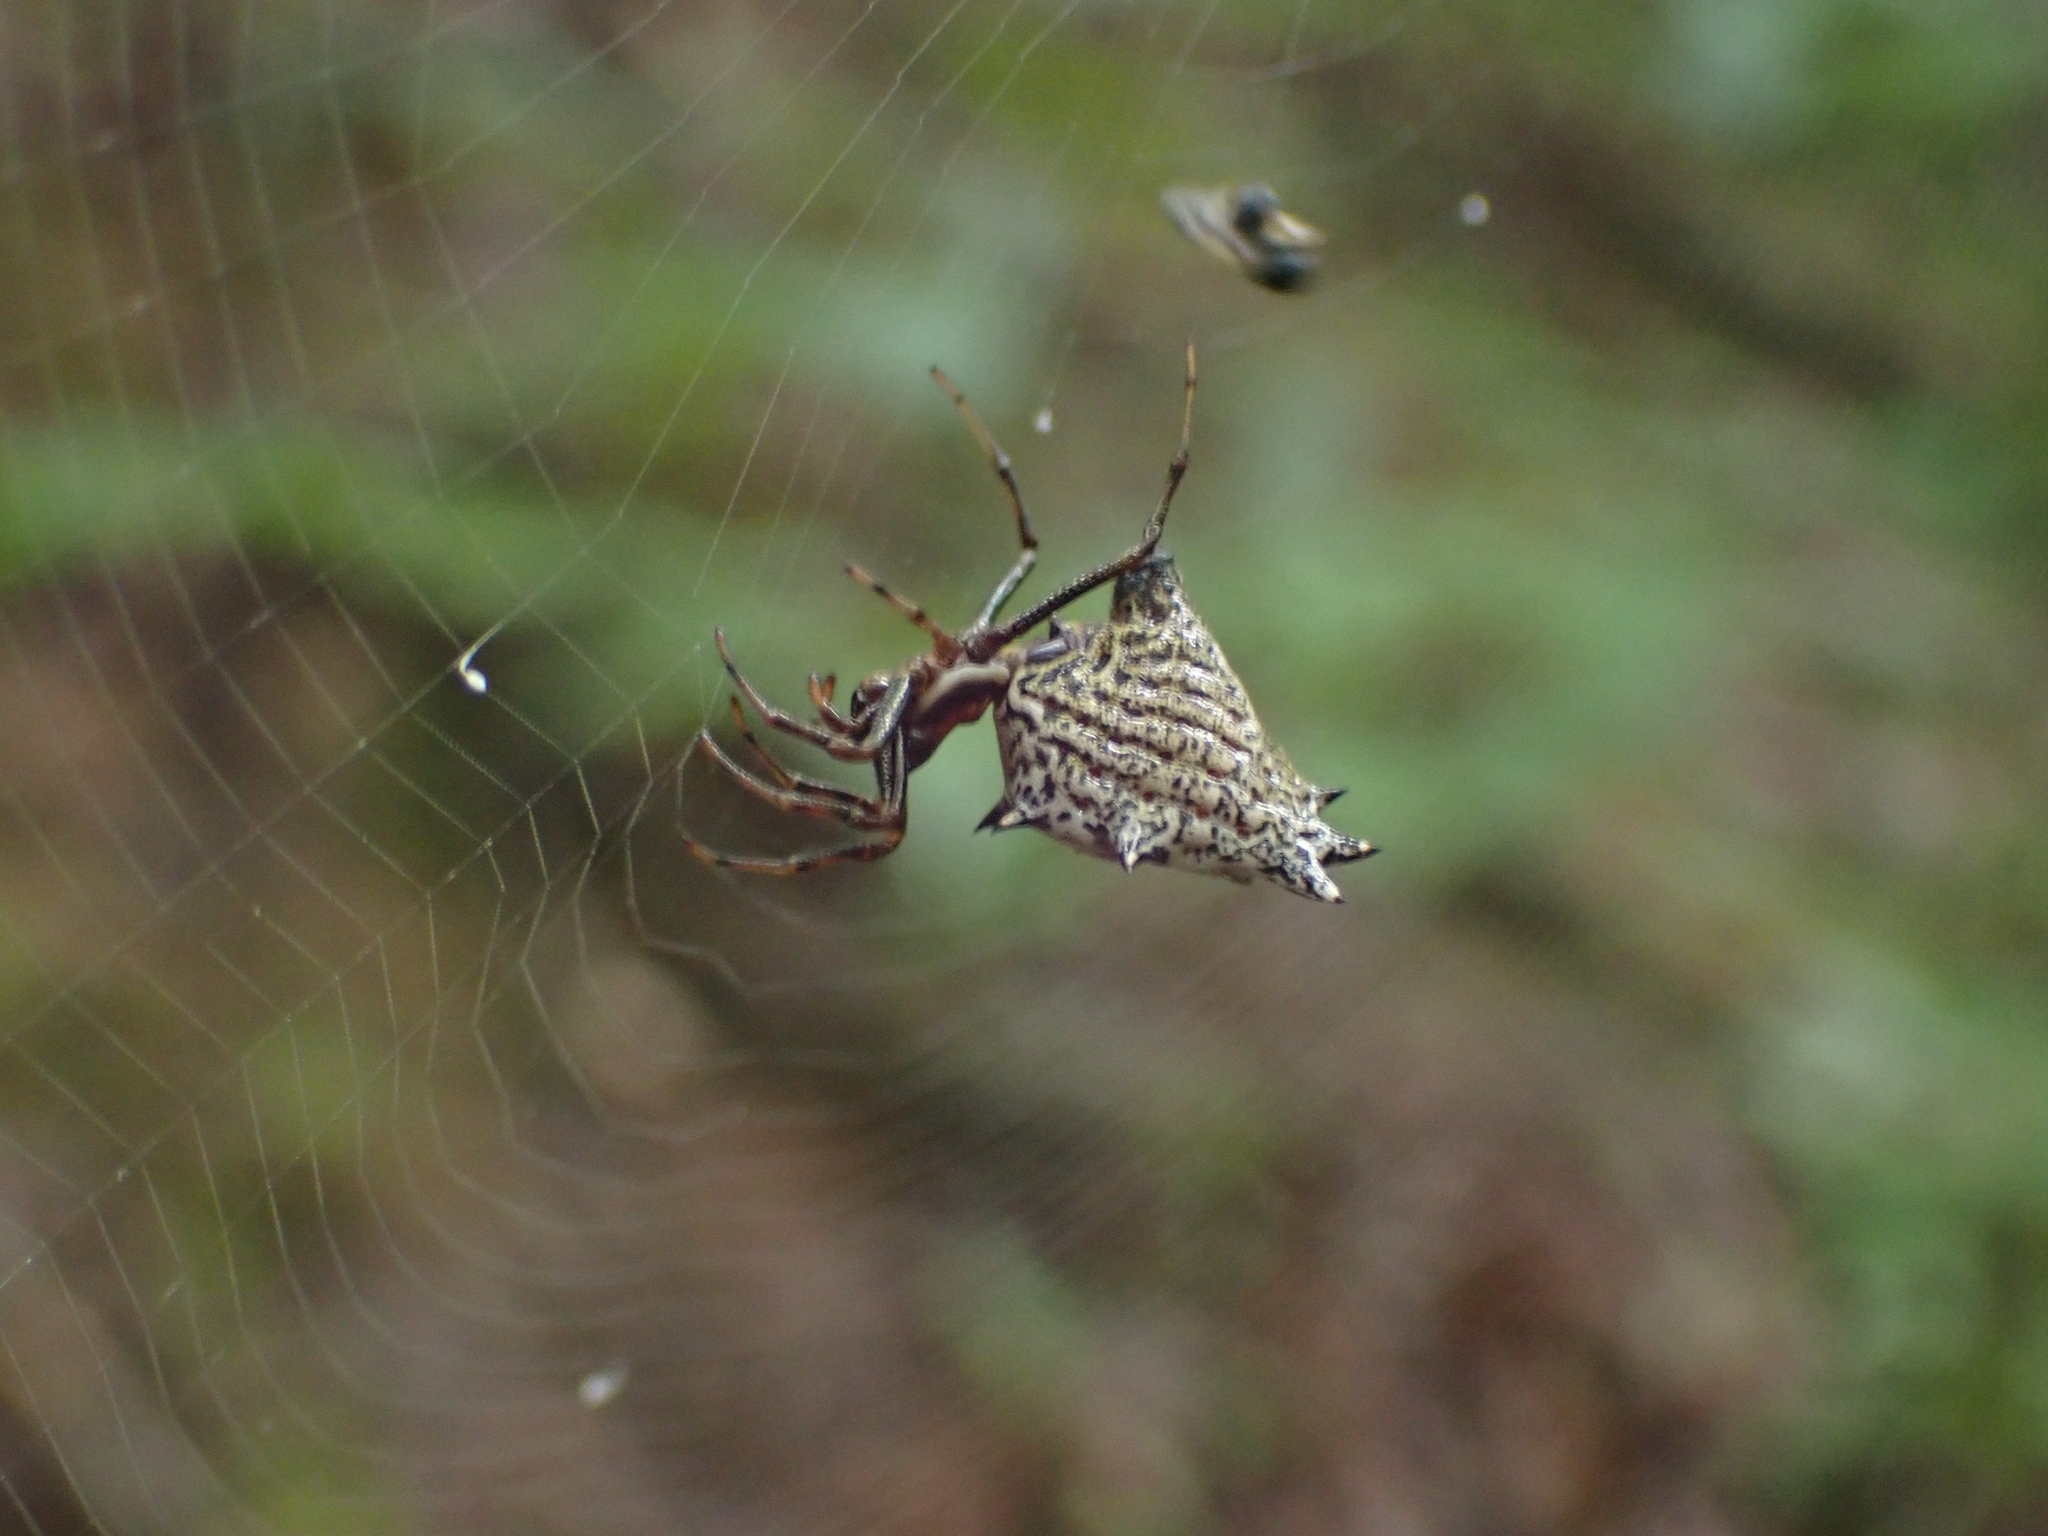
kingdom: Animalia
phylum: Arthropoda
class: Arachnida
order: Araneae
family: Araneidae
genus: Micrathena
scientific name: Micrathena gracilis
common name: Orb weavers
